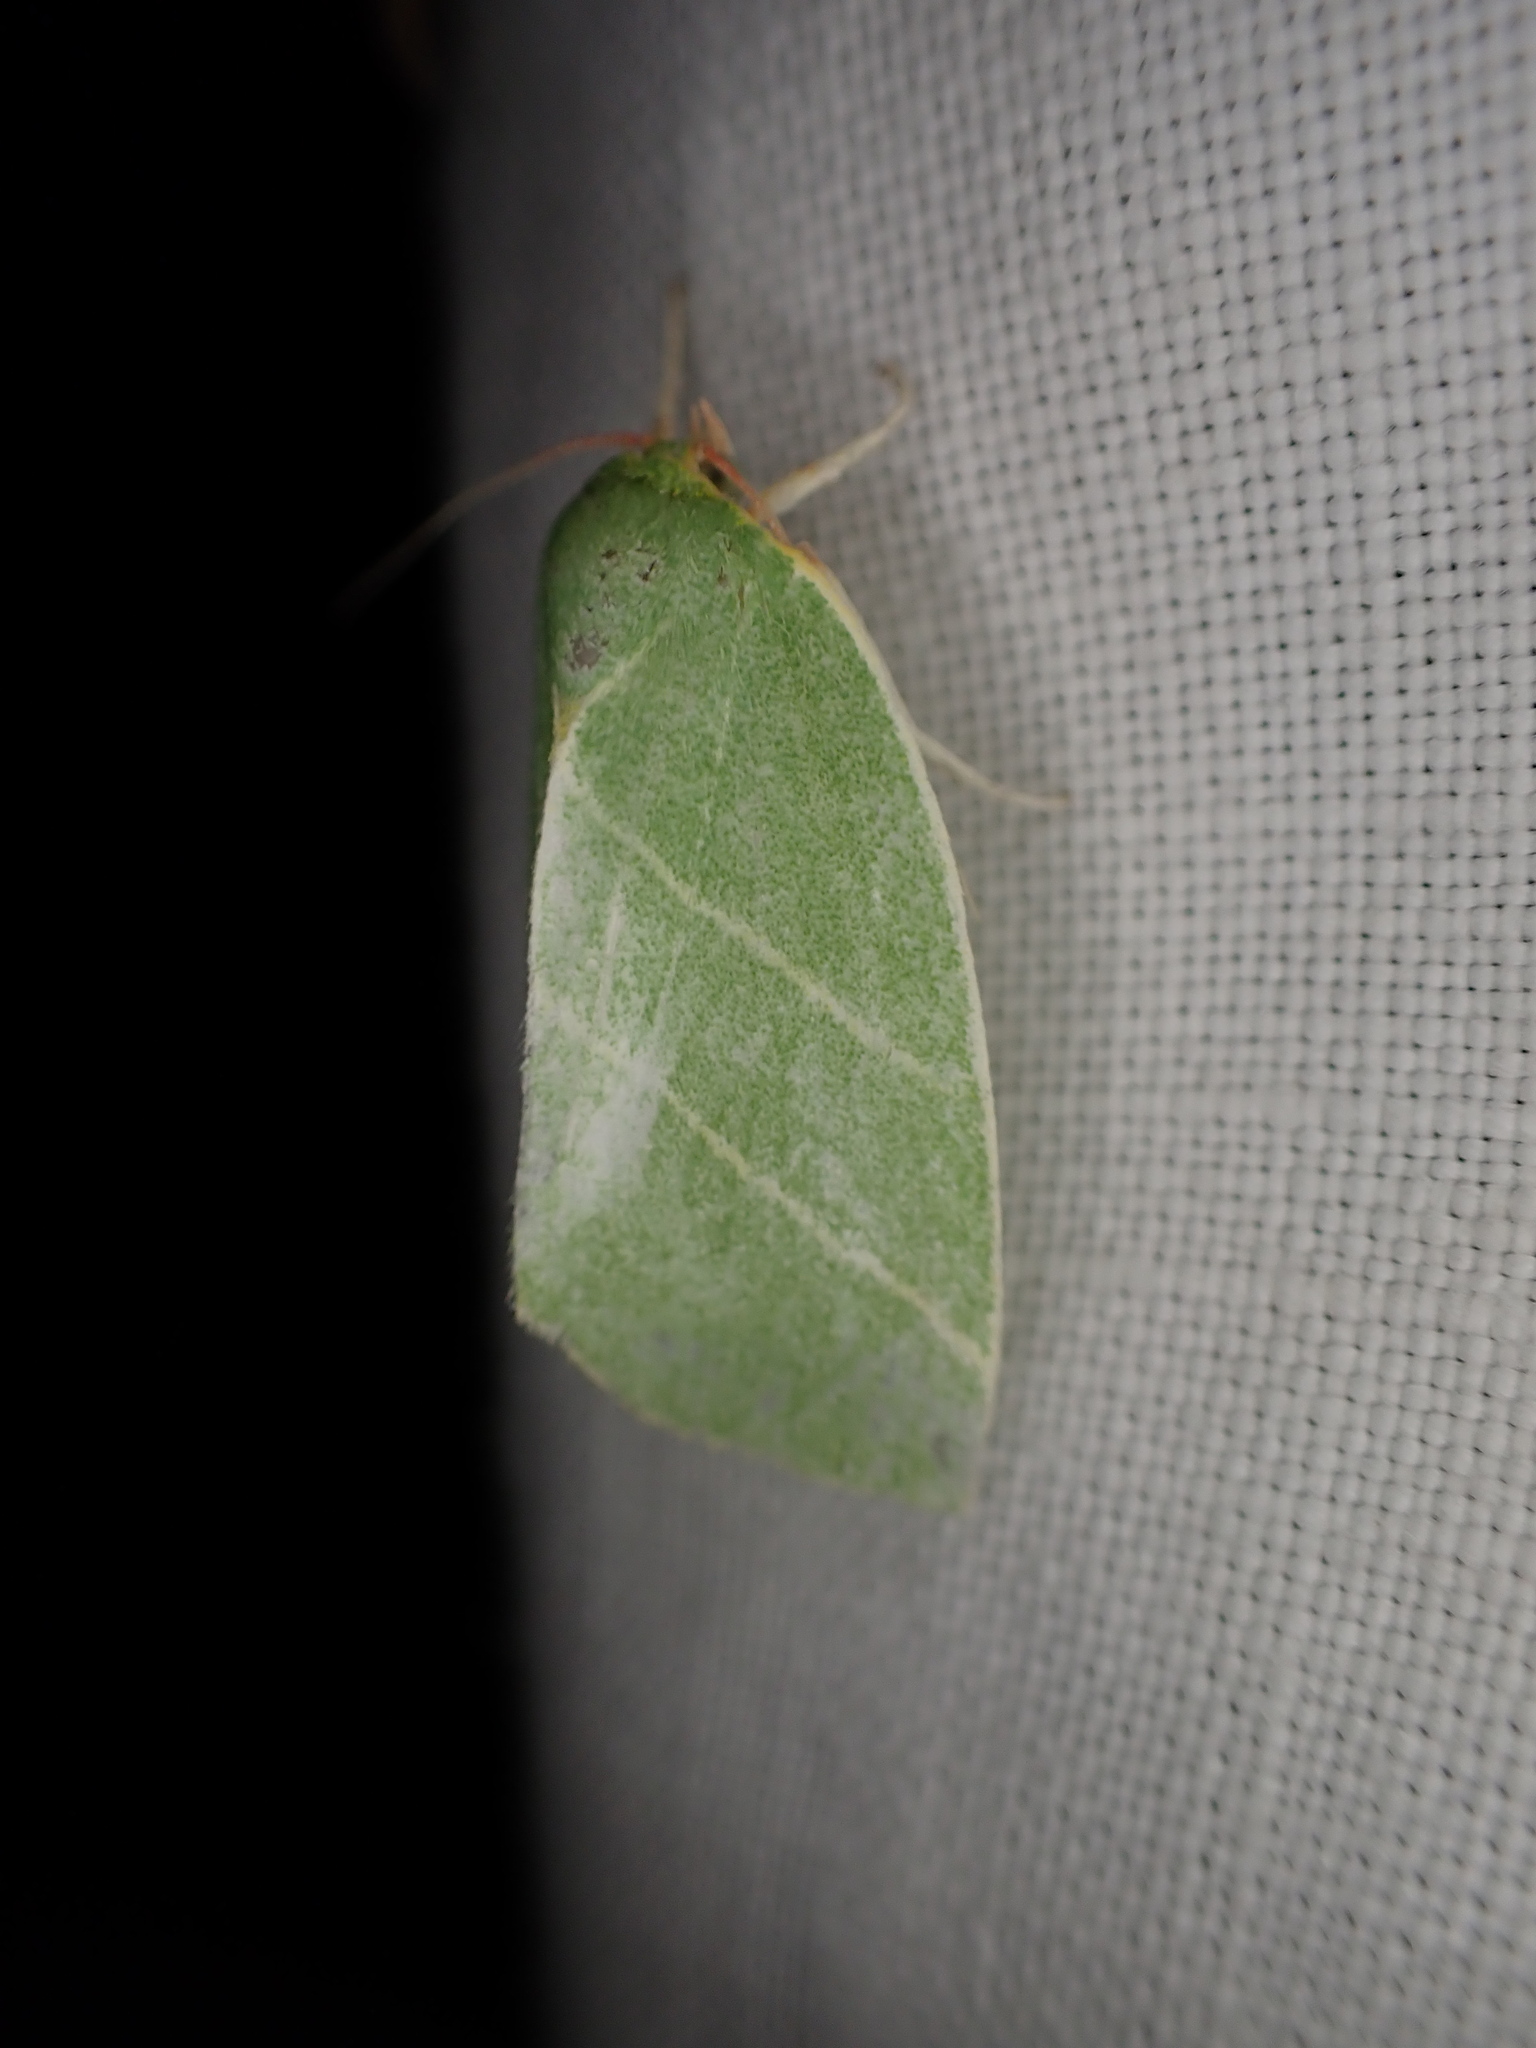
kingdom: Animalia
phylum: Arthropoda
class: Insecta
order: Lepidoptera
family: Nolidae
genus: Bena
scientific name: Bena bicolorana
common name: Scarce silver-lines
